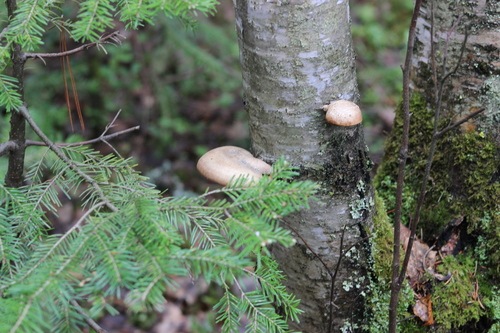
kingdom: Fungi
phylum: Basidiomycota
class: Agaricomycetes
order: Polyporales
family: Fomitopsidaceae
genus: Fomitopsis
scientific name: Fomitopsis betulina
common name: Birch polypore
